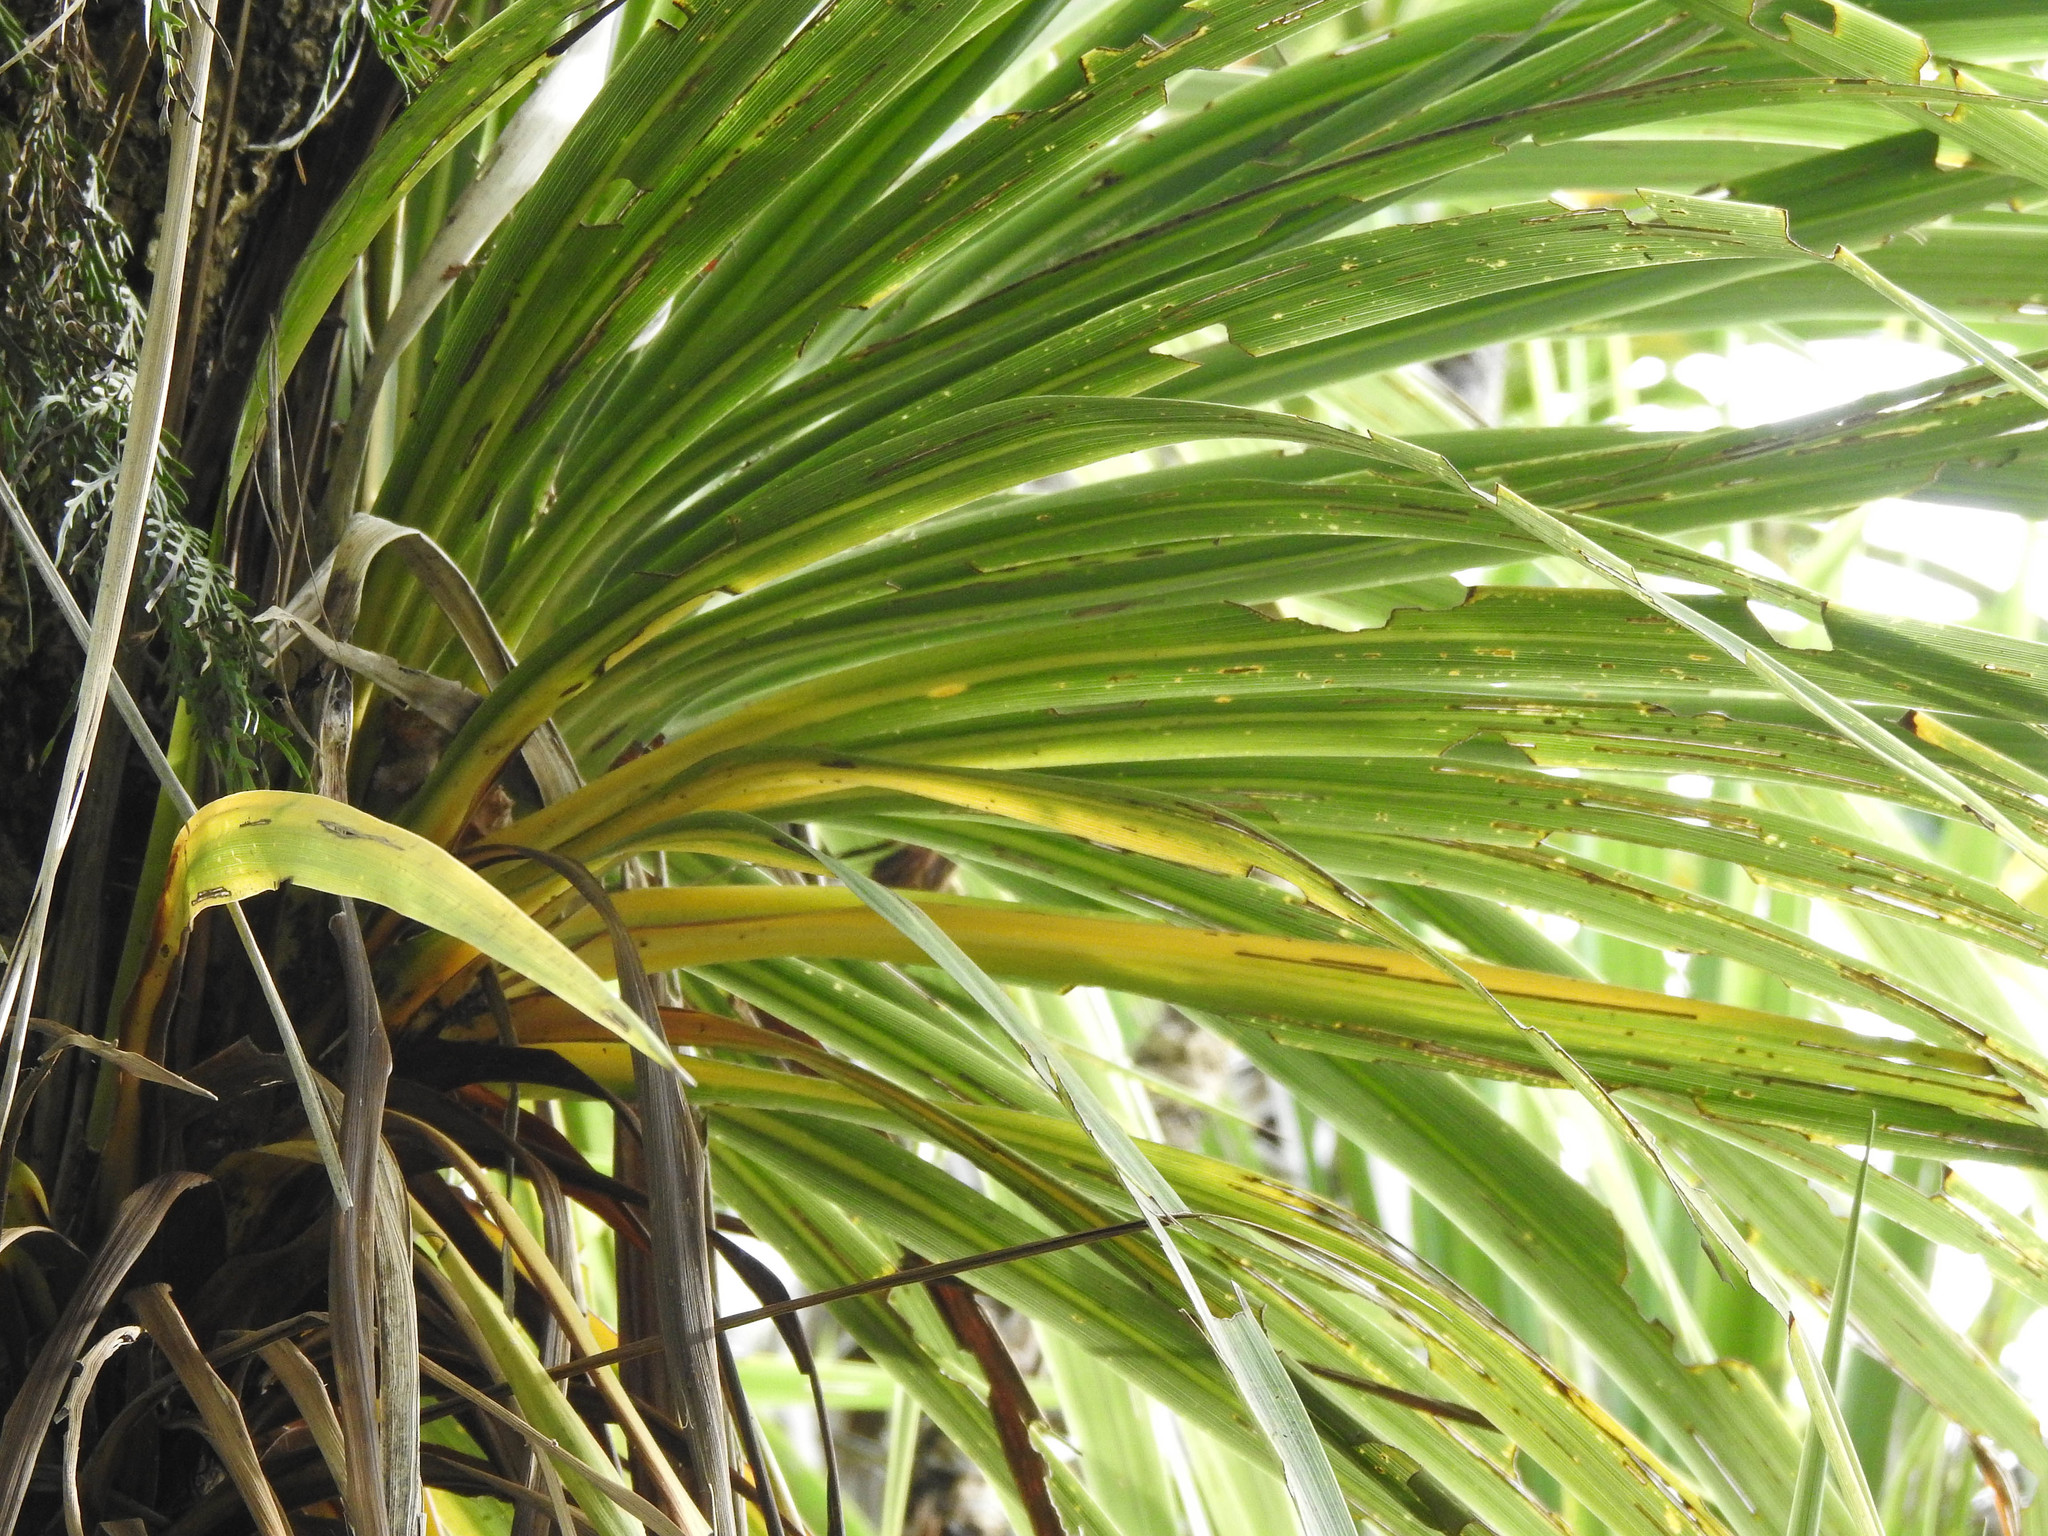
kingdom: Plantae
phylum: Tracheophyta
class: Liliopsida
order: Asparagales
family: Asparagaceae
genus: Cordyline
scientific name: Cordyline australis
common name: Cabbage-palm
